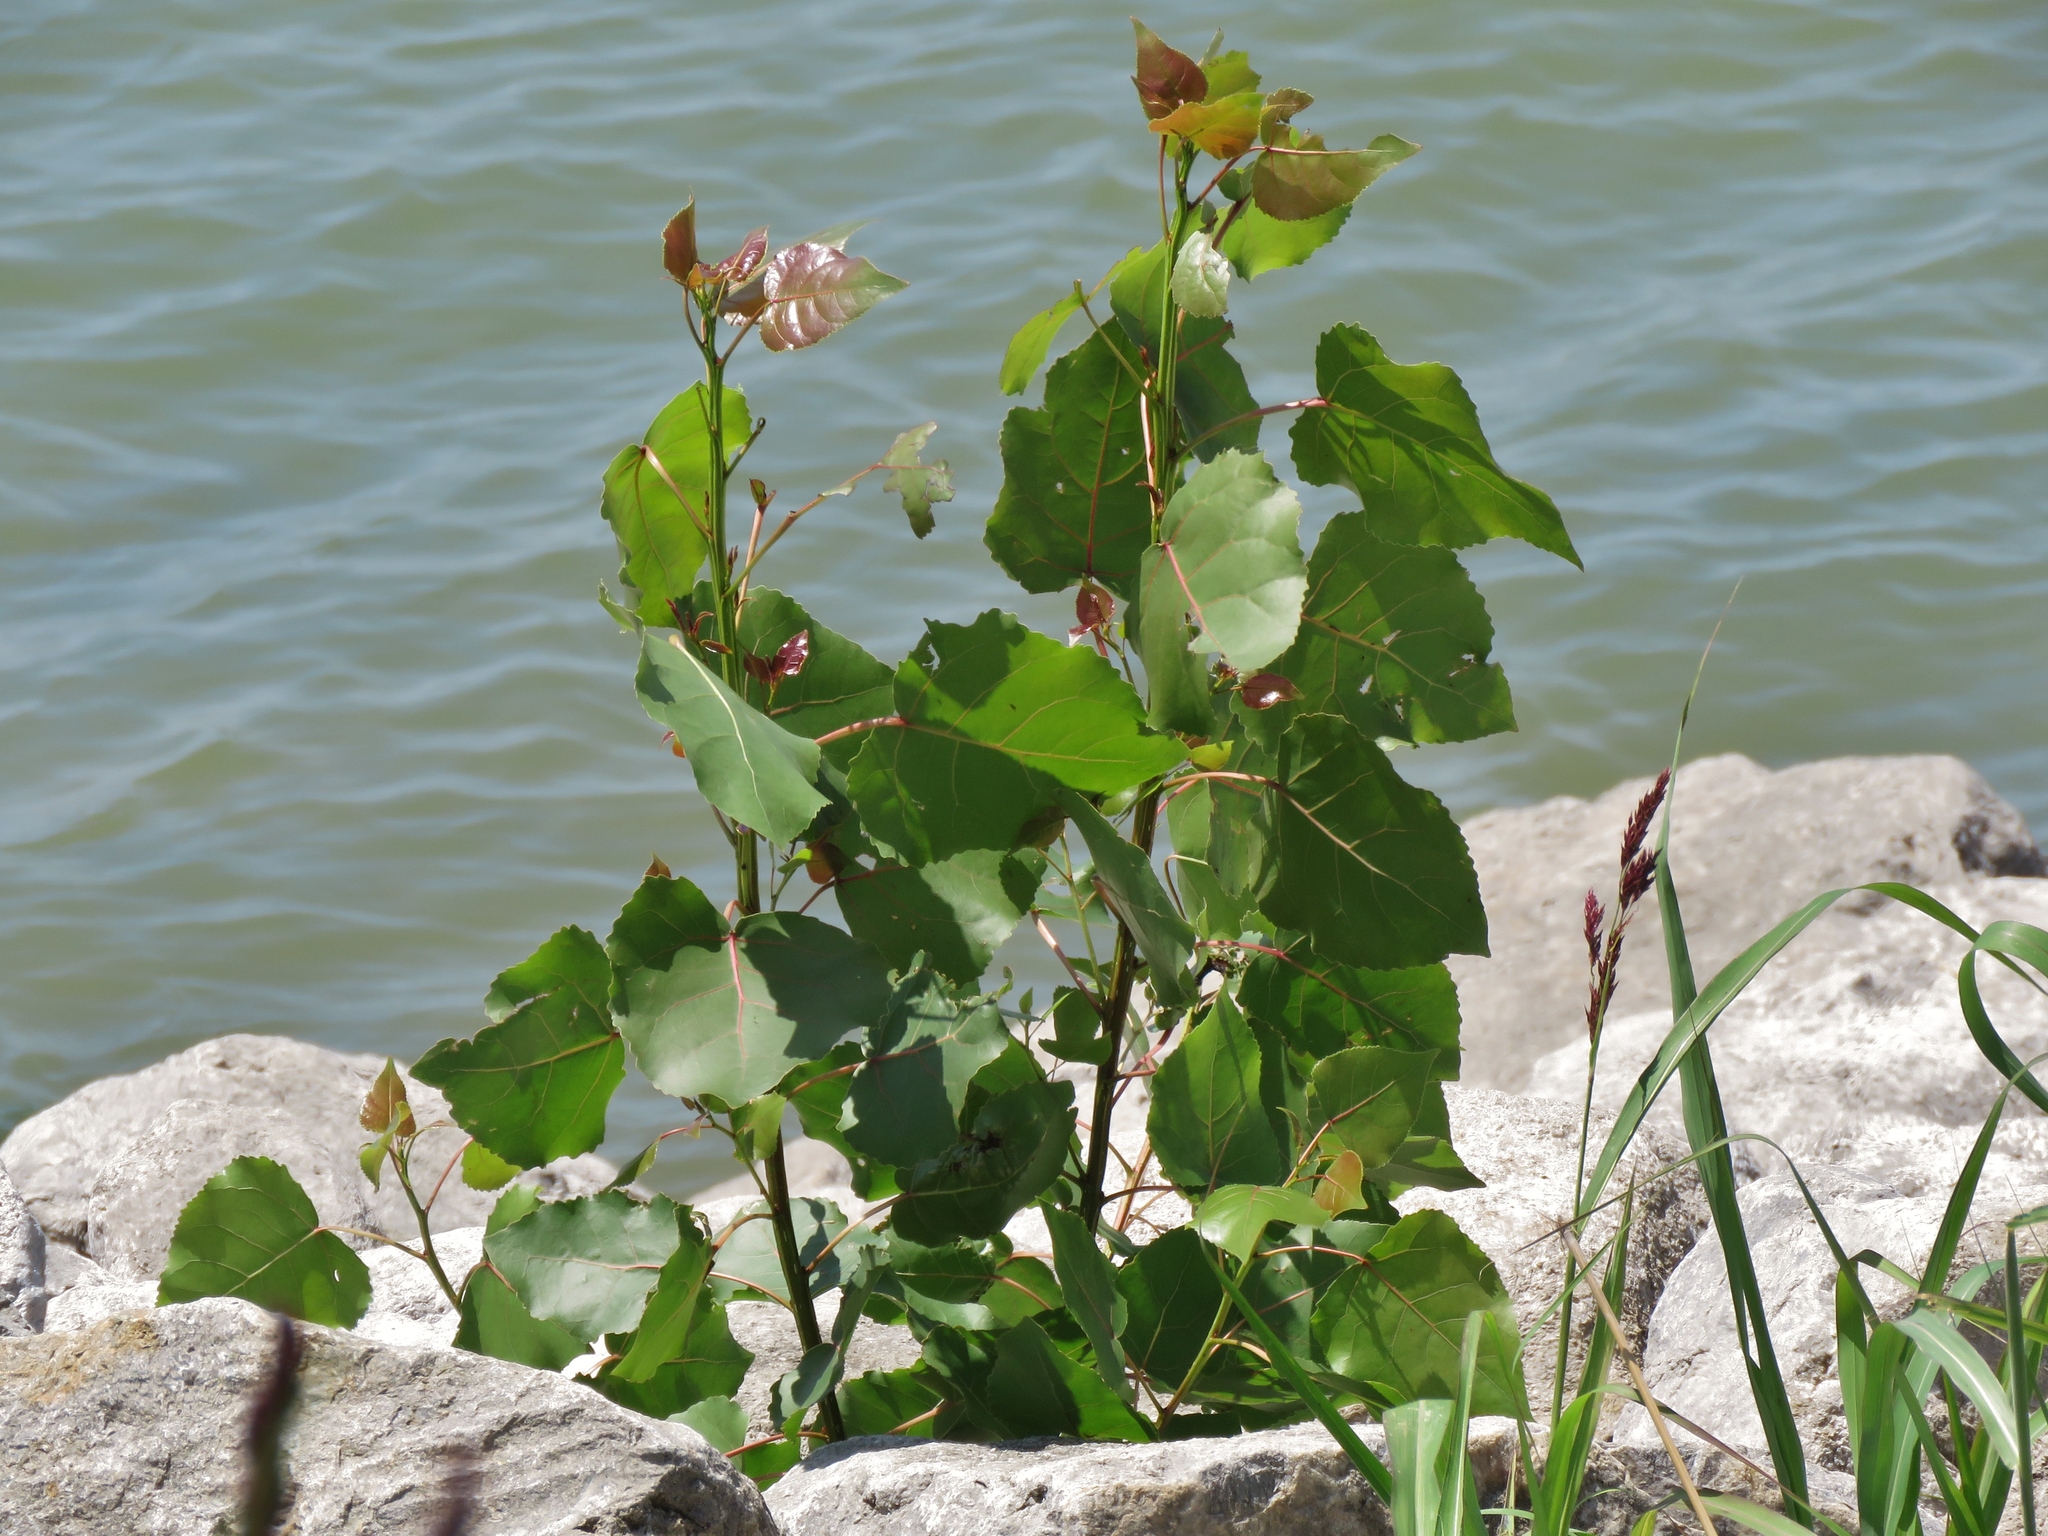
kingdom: Plantae
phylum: Tracheophyta
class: Magnoliopsida
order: Malpighiales
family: Salicaceae
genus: Populus
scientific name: Populus deltoides
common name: Eastern cottonwood
